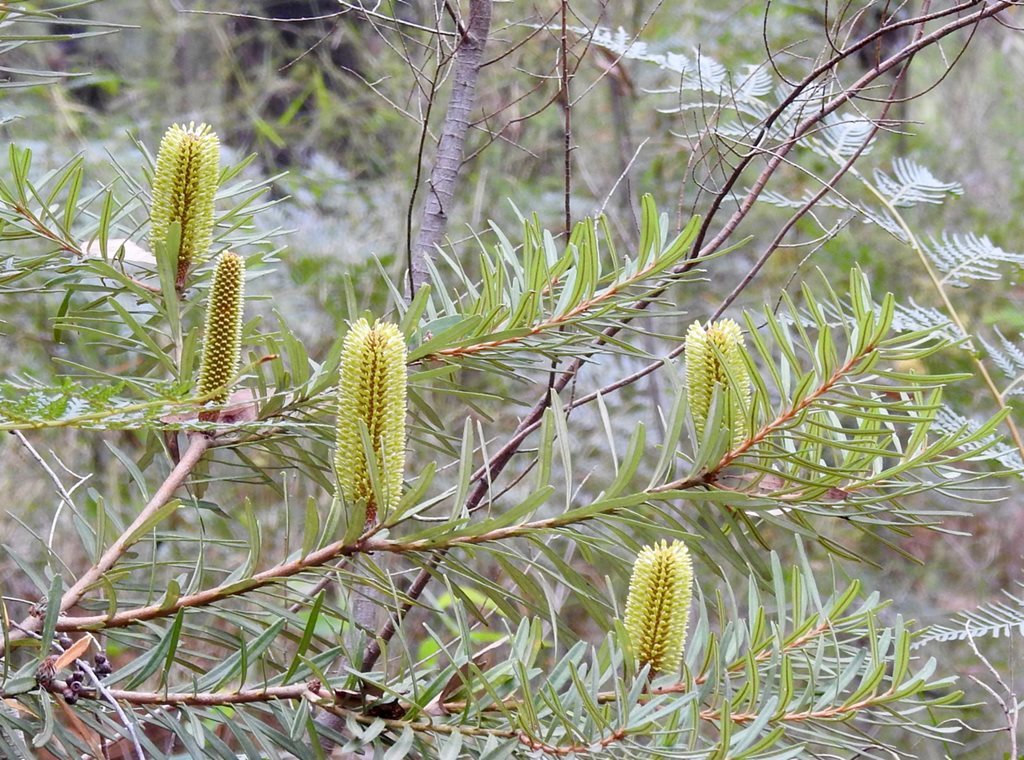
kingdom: Plantae
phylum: Tracheophyta
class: Magnoliopsida
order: Proteales
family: Proteaceae
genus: Banksia
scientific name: Banksia marginata
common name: Silver banksia
